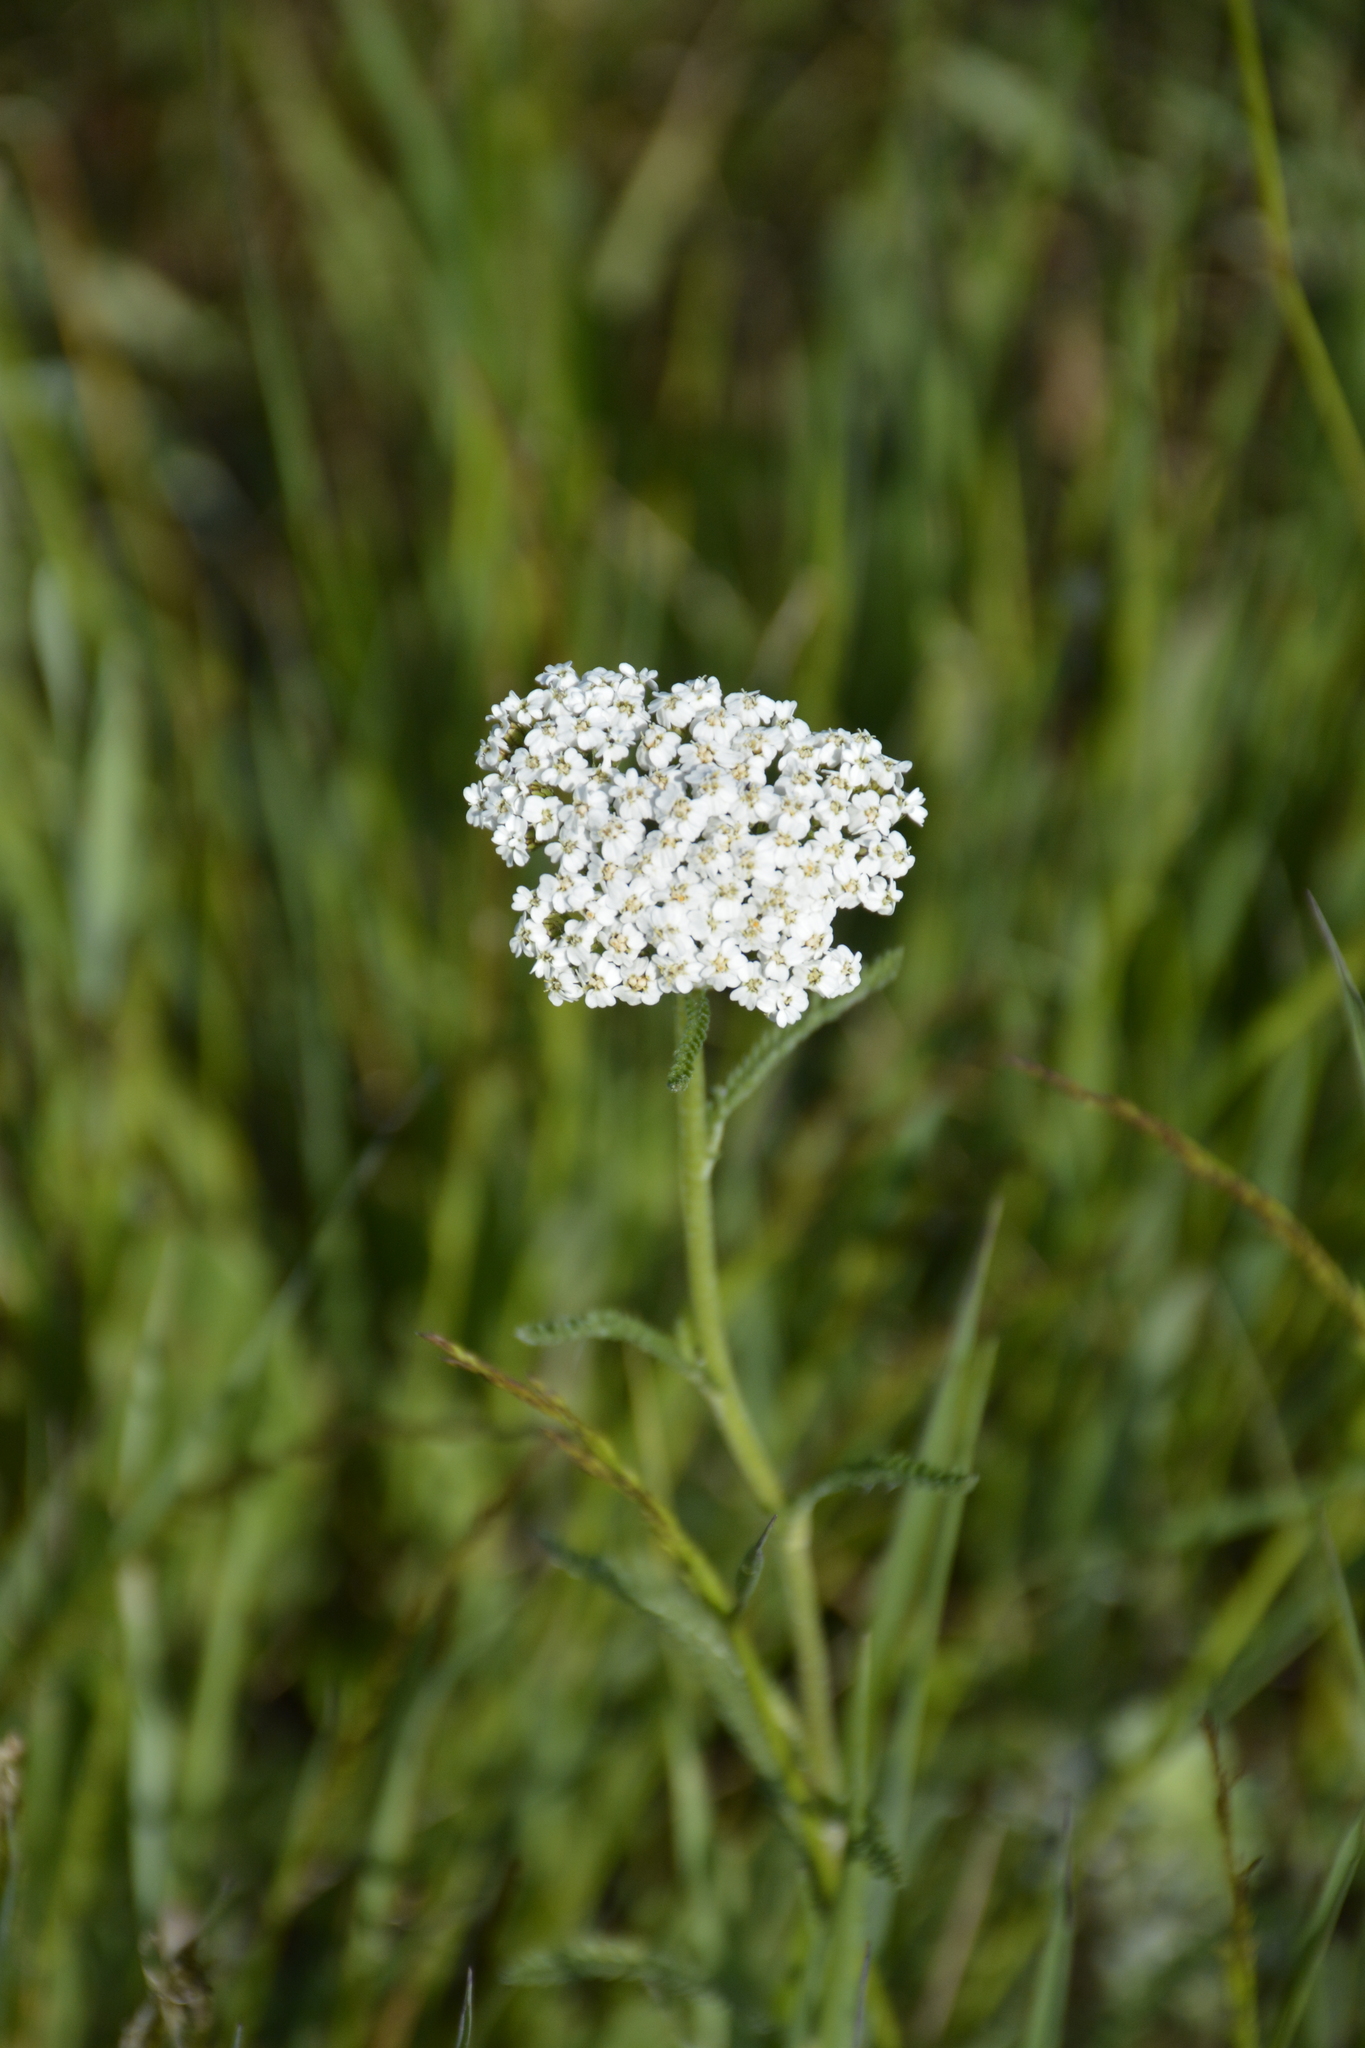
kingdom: Plantae
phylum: Tracheophyta
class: Magnoliopsida
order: Asterales
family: Asteraceae
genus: Achillea
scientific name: Achillea millefolium
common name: Yarrow
